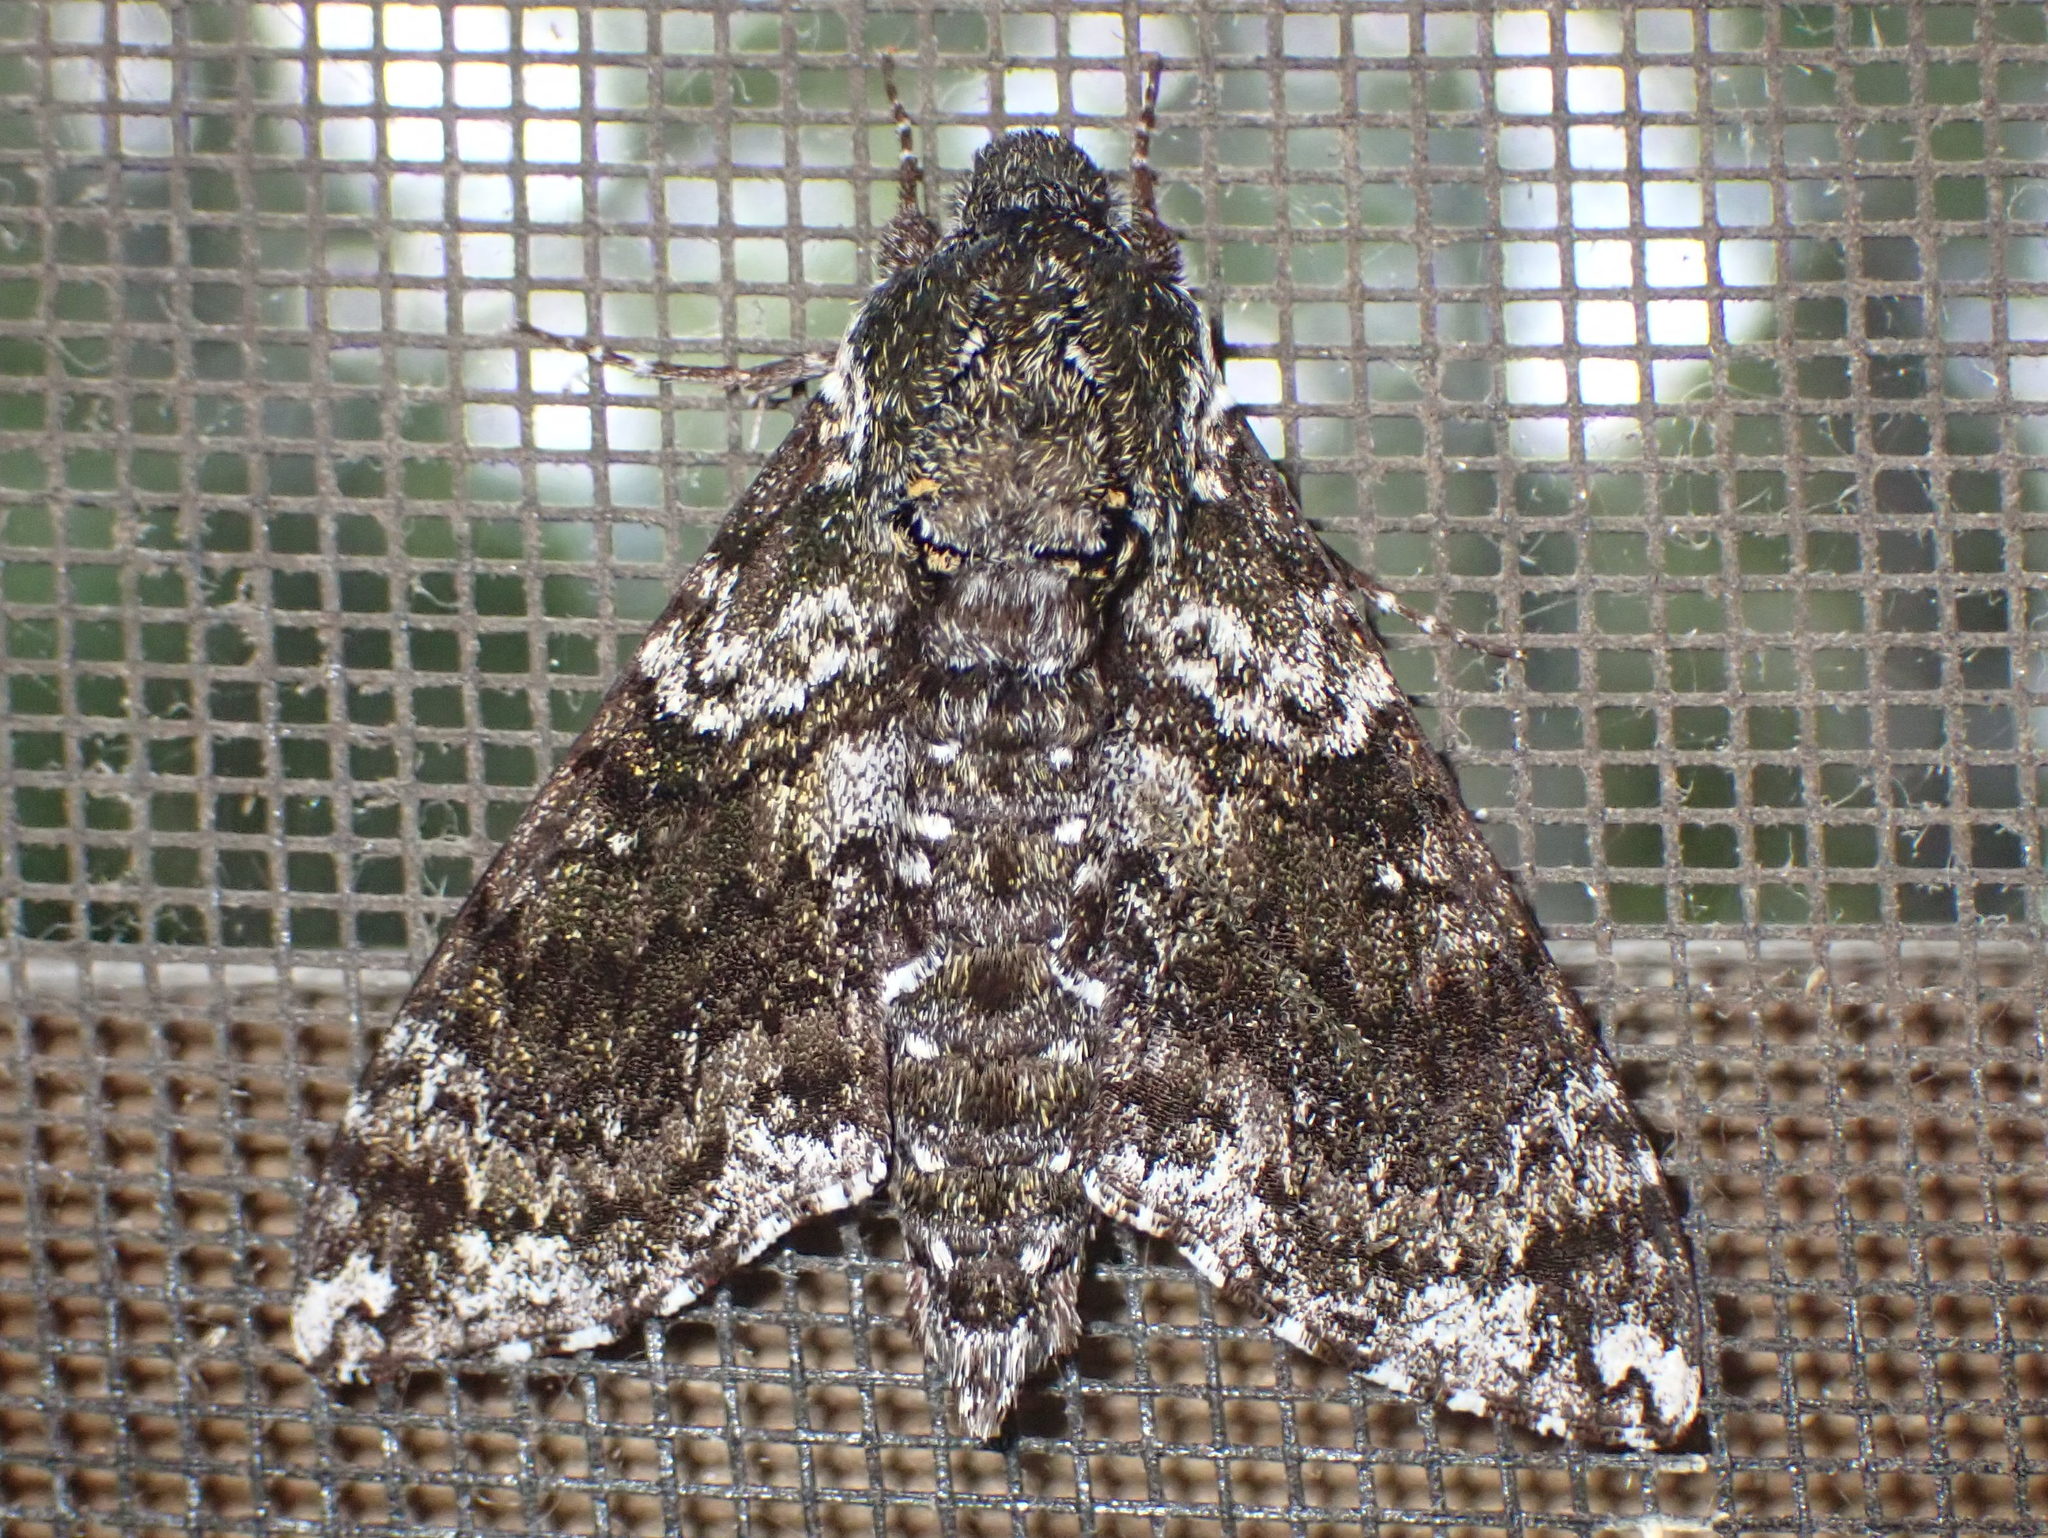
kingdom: Animalia
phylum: Arthropoda
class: Insecta
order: Lepidoptera
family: Sphingidae
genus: Dolba
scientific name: Dolba hyloeus
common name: Pawpaw sphinx
